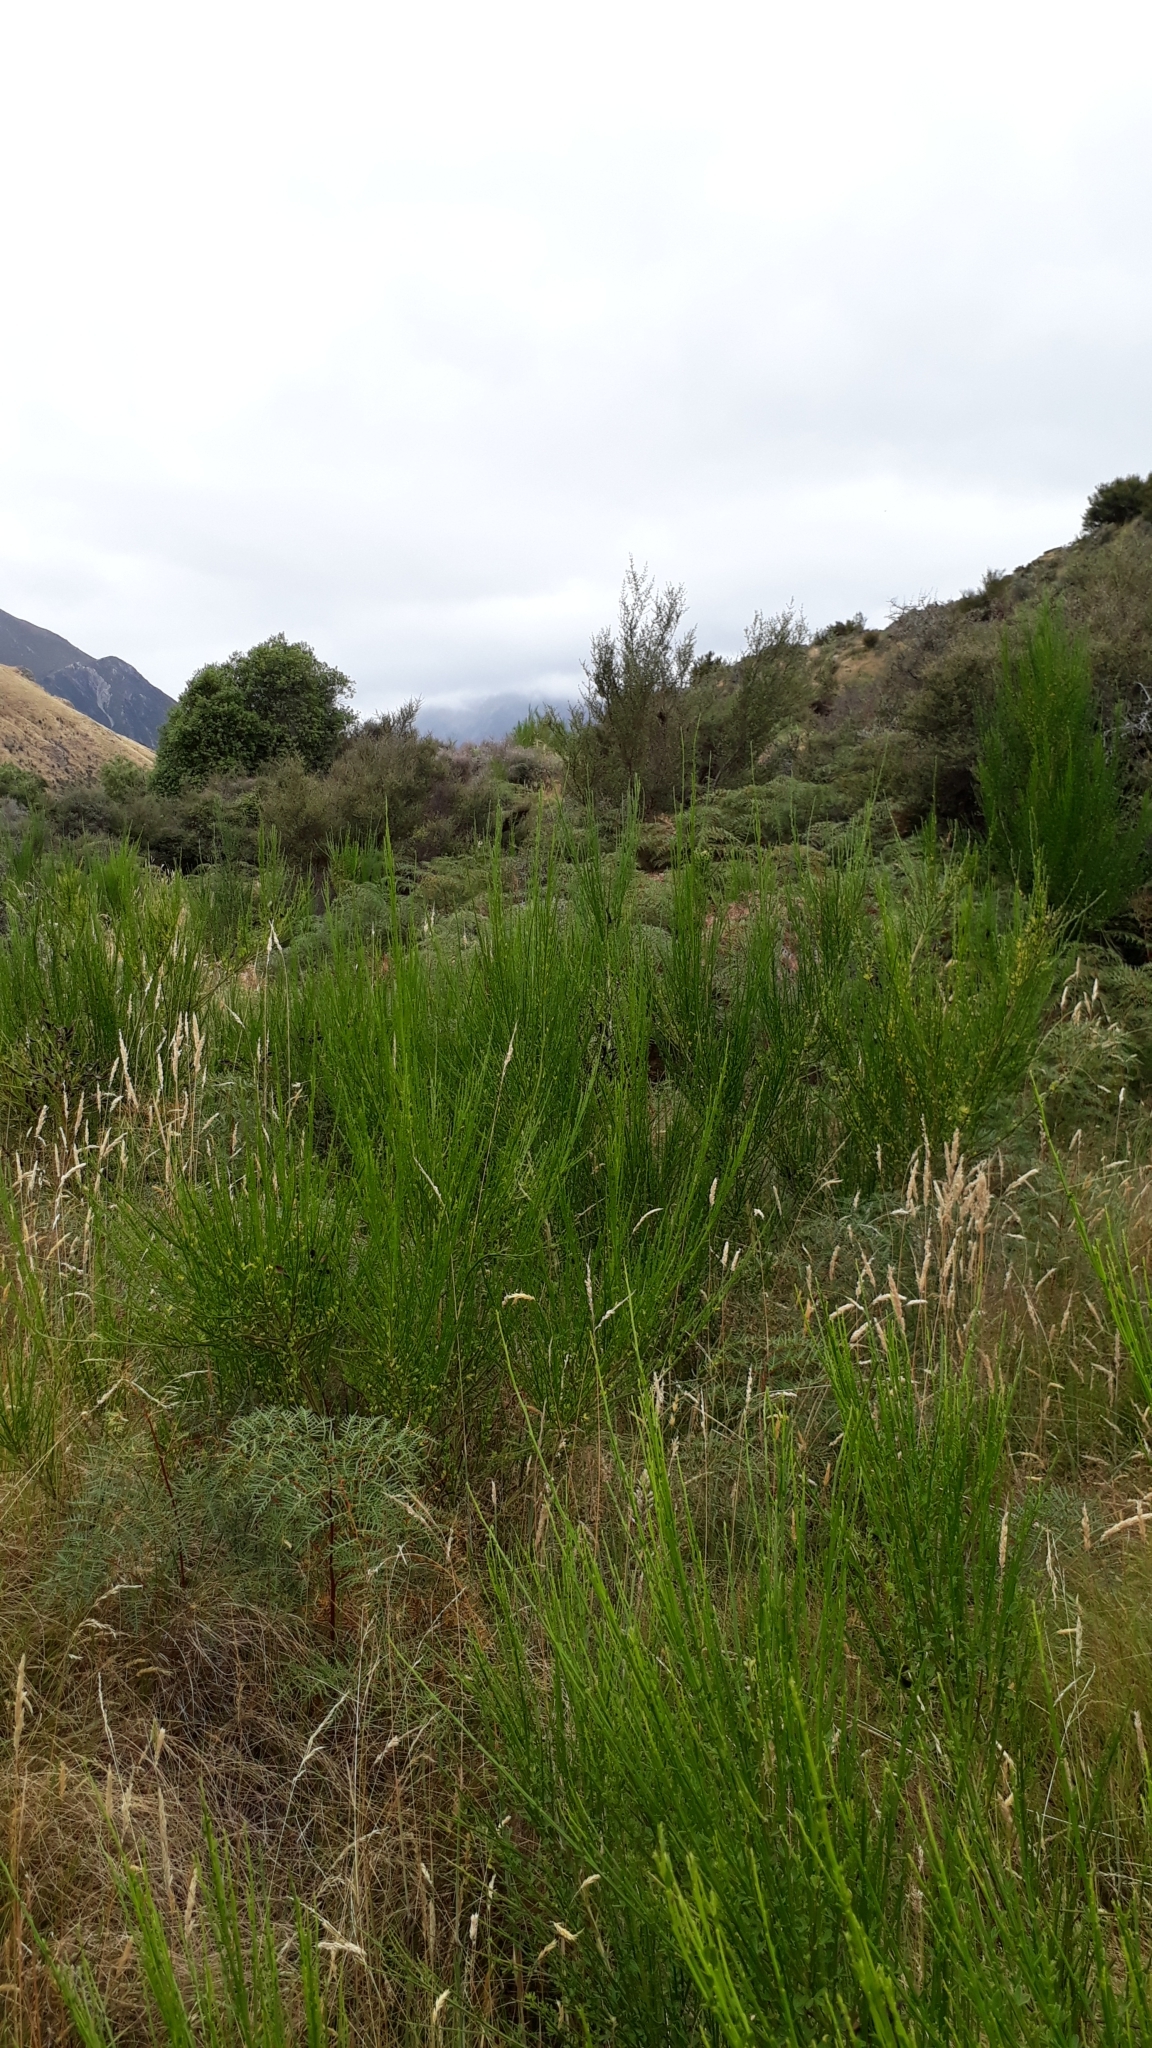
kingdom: Plantae
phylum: Tracheophyta
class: Magnoliopsida
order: Fabales
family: Fabaceae
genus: Cytisus
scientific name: Cytisus scoparius
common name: Scotch broom
